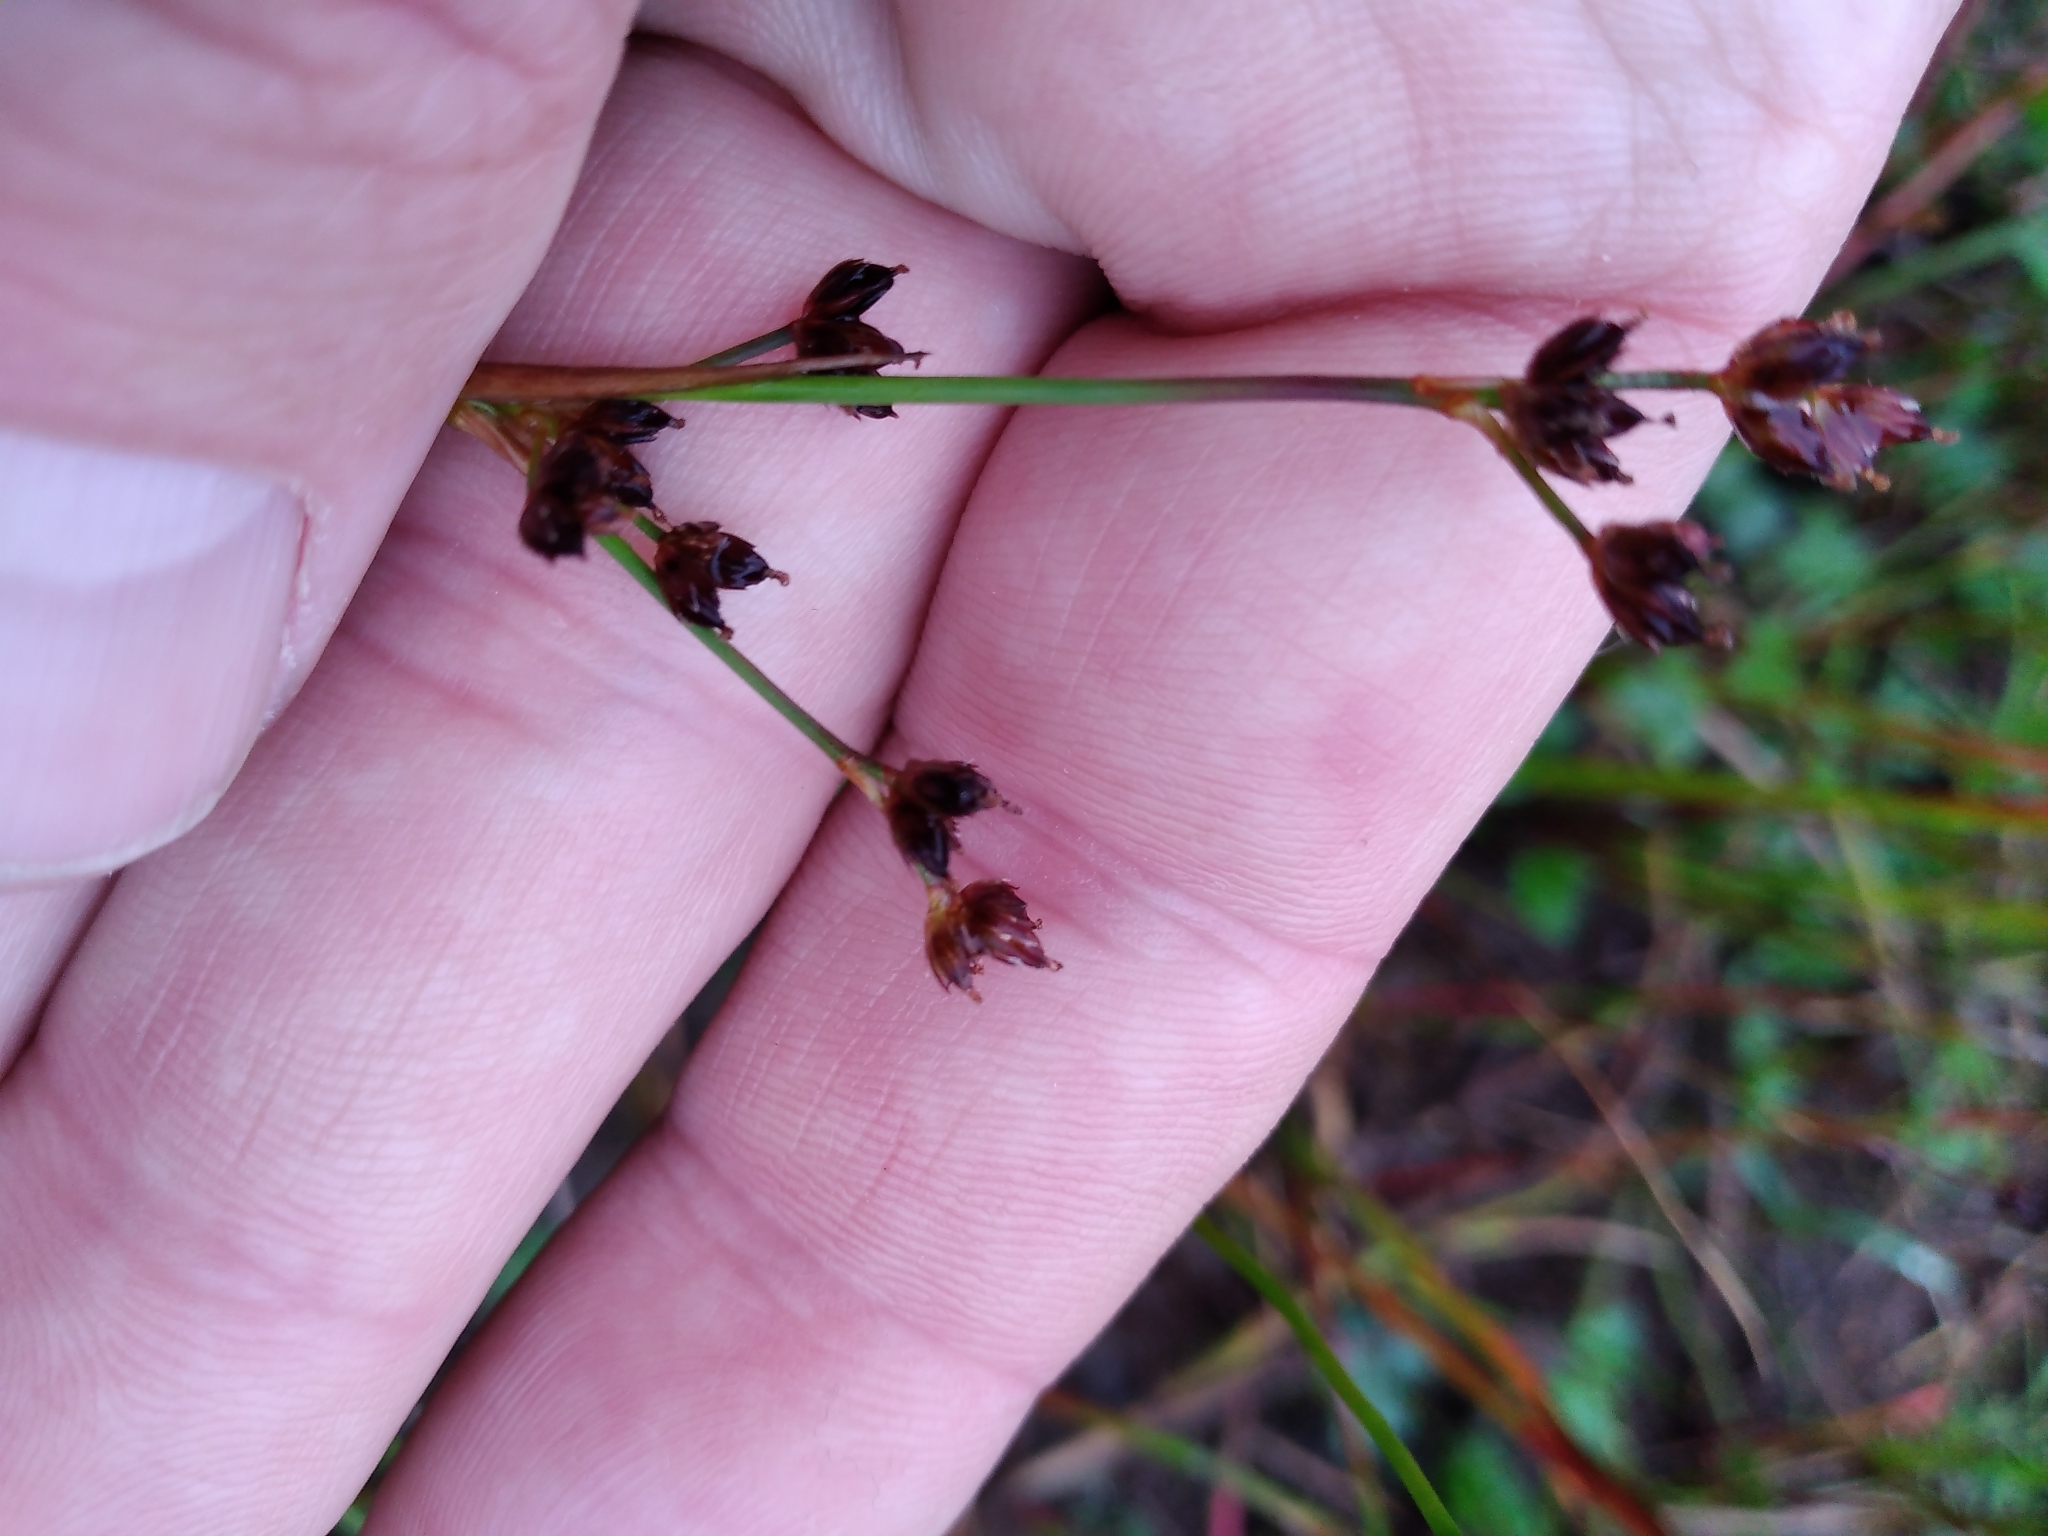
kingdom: Plantae
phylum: Tracheophyta
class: Liliopsida
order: Poales
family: Juncaceae
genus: Juncus
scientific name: Juncus articulatus
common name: Jointed rush
